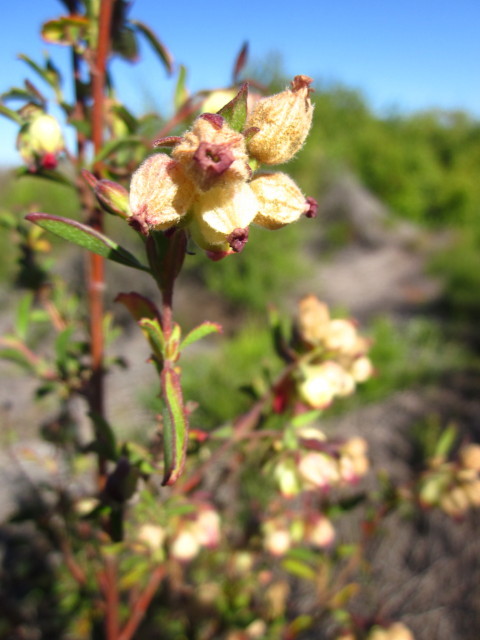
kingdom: Plantae
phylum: Tracheophyta
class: Magnoliopsida
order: Malvales
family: Malvaceae
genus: Hermannia
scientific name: Hermannia hyssopifolia
